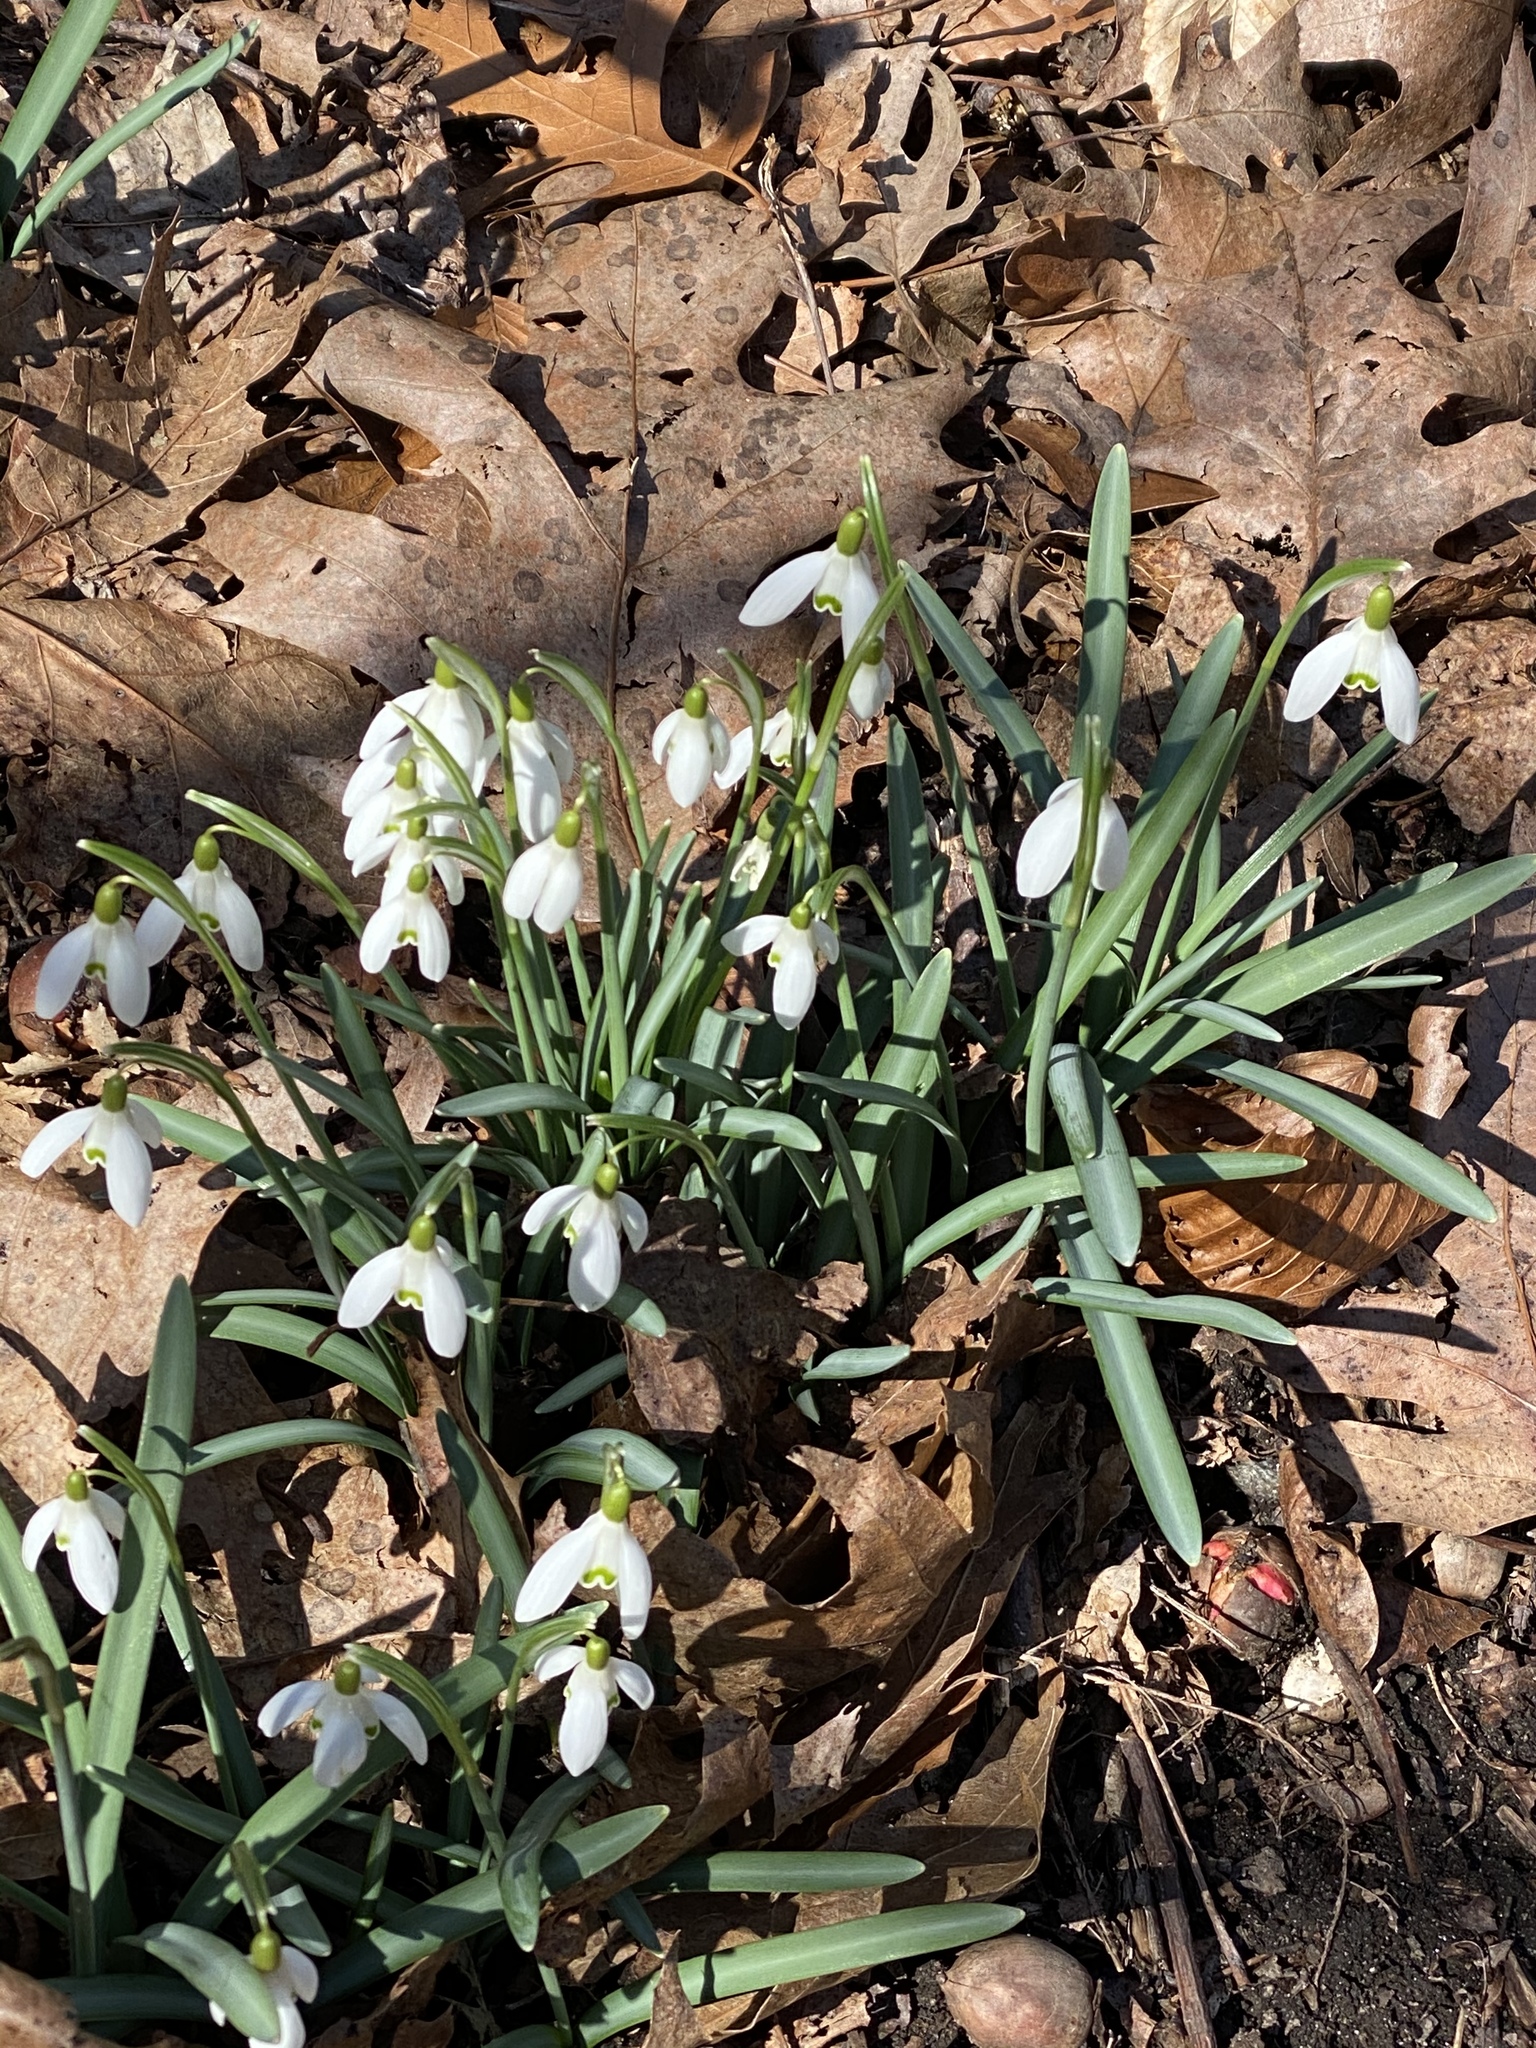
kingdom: Plantae
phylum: Tracheophyta
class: Liliopsida
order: Asparagales
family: Amaryllidaceae
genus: Galanthus
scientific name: Galanthus nivalis
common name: Snowdrop
